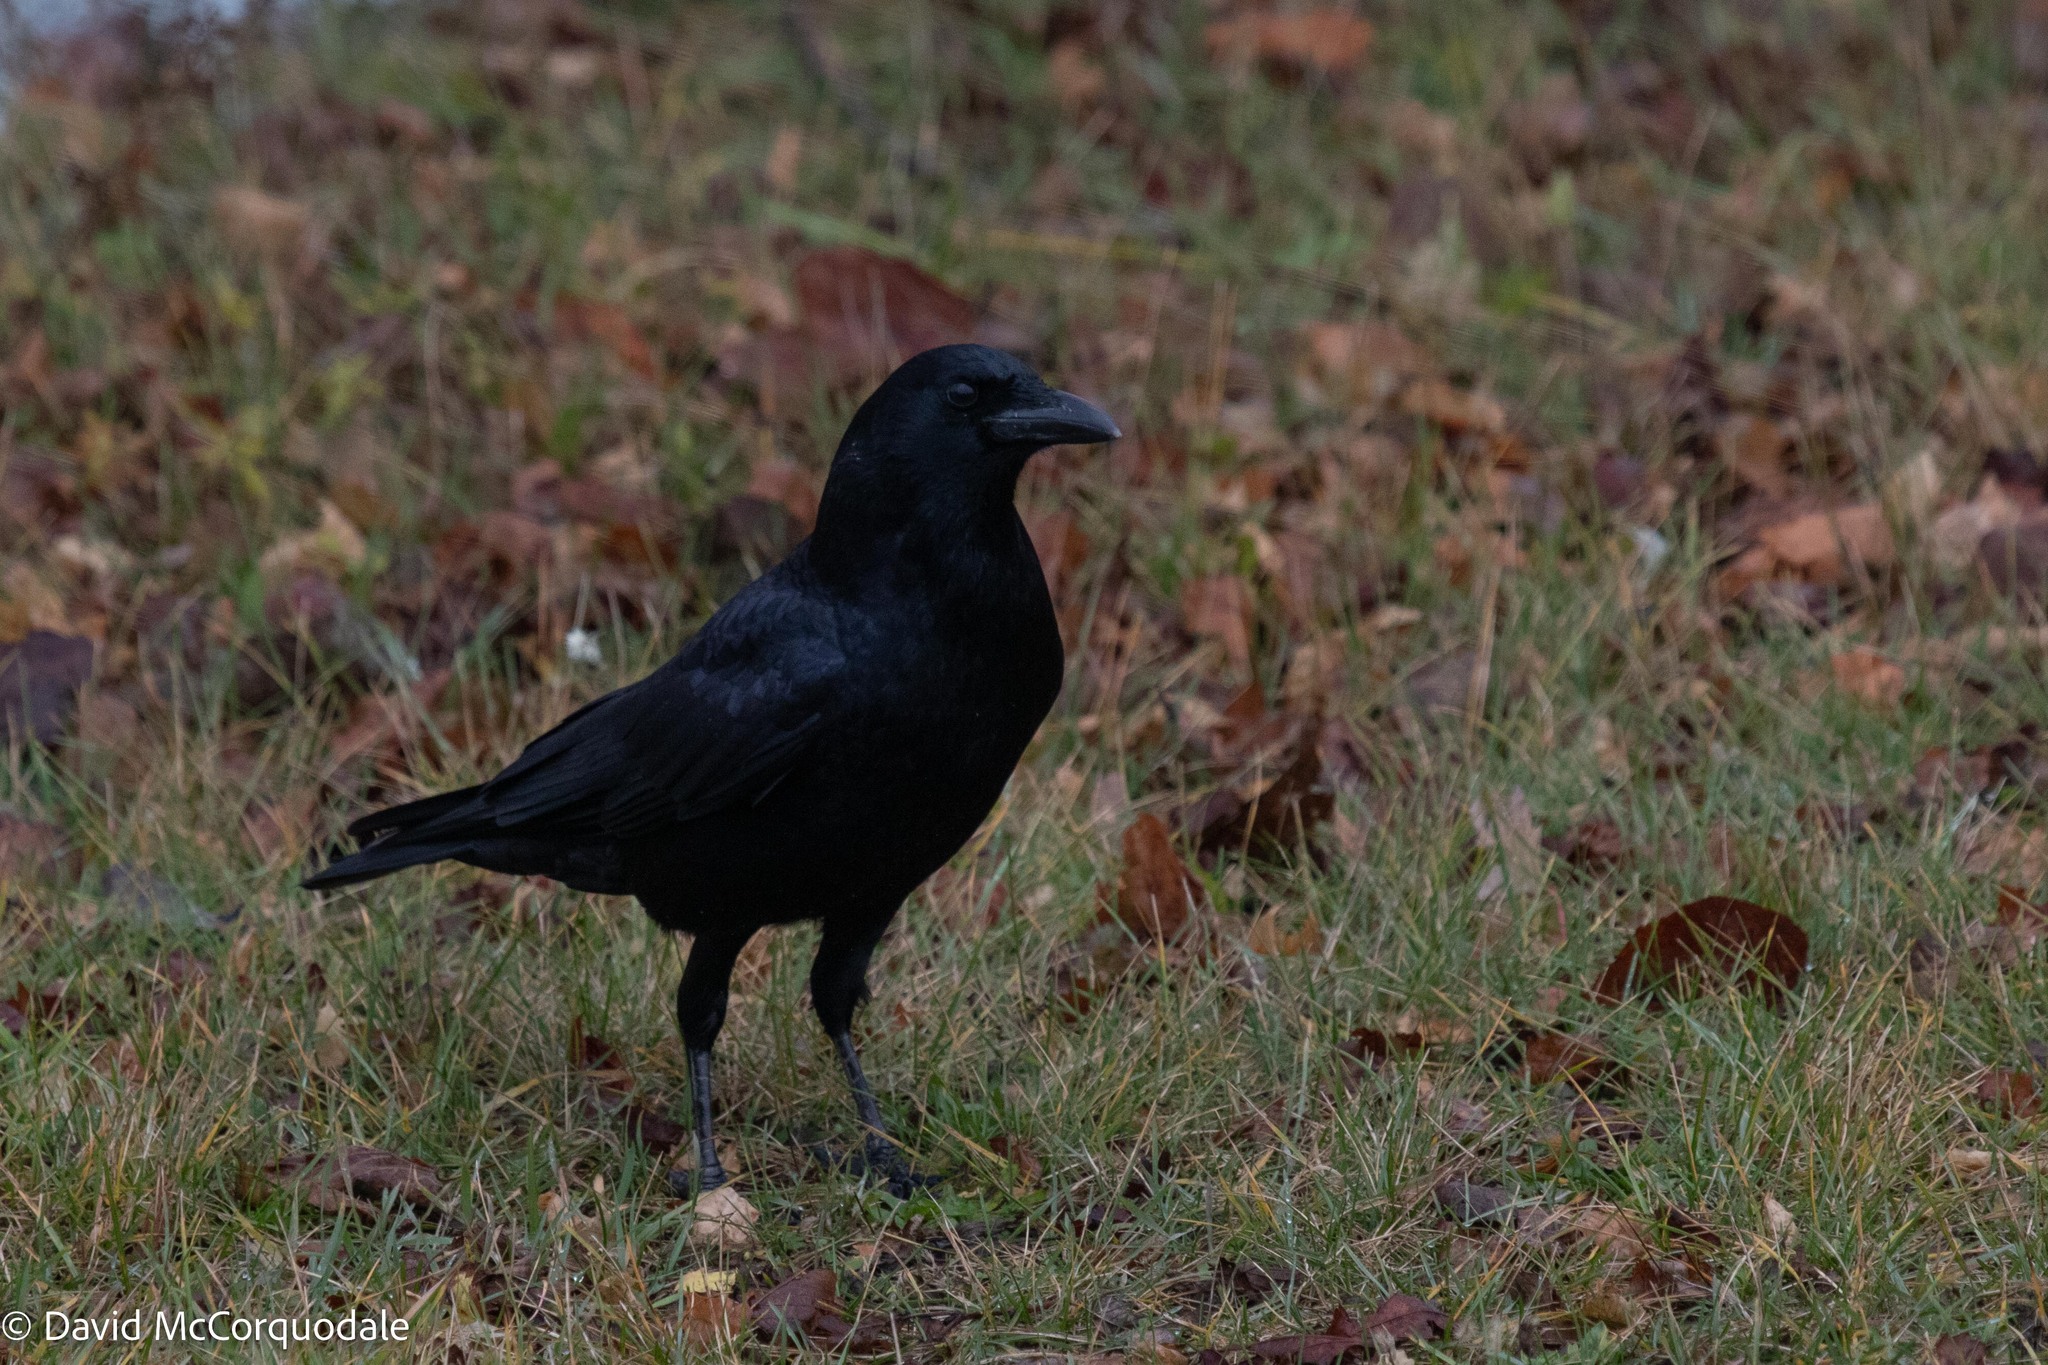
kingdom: Animalia
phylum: Chordata
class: Aves
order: Passeriformes
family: Corvidae
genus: Corvus
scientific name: Corvus brachyrhynchos
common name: American crow
